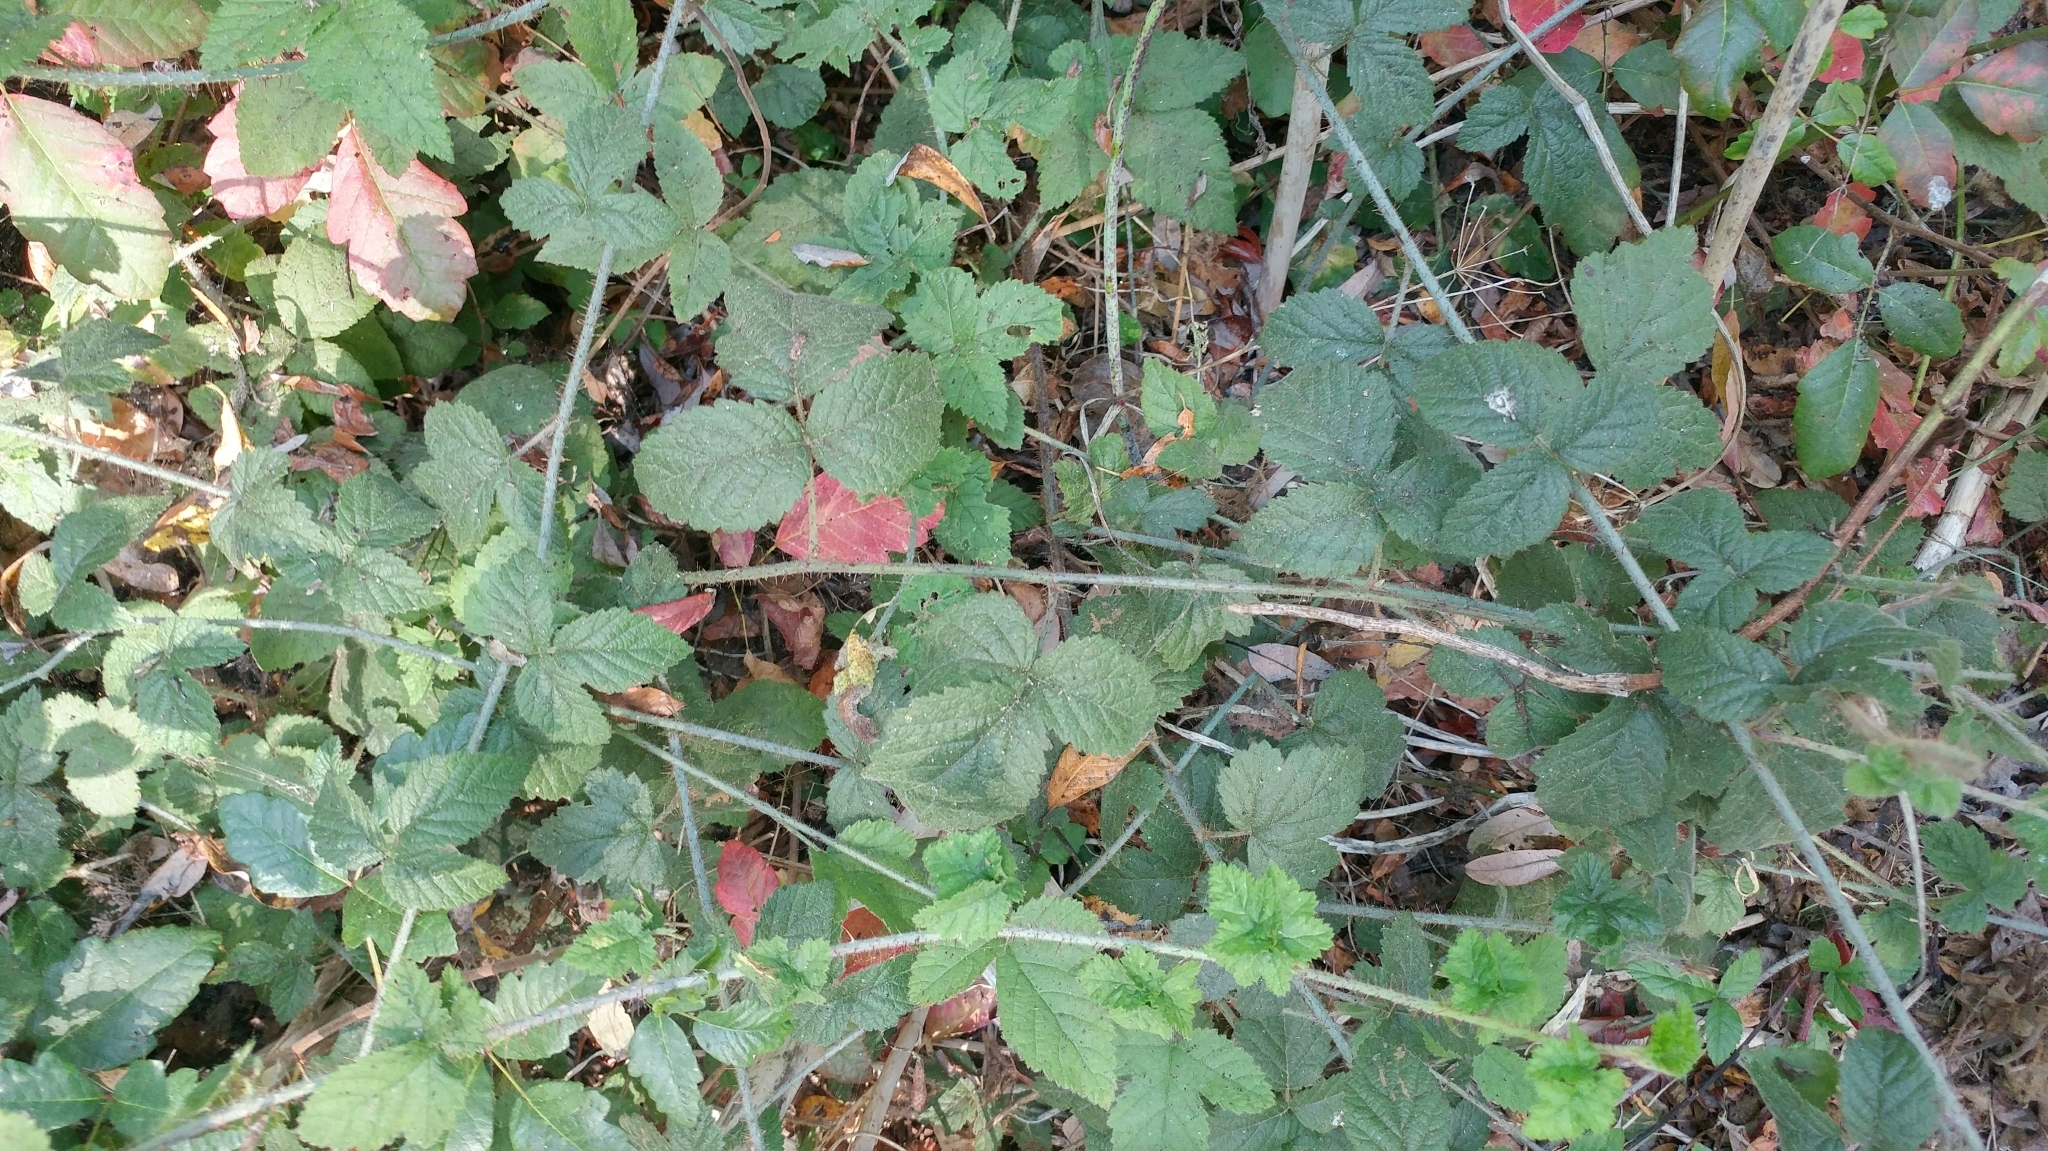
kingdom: Plantae
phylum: Tracheophyta
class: Magnoliopsida
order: Rosales
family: Rosaceae
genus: Rubus
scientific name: Rubus ursinus
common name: Pacific blackberry
